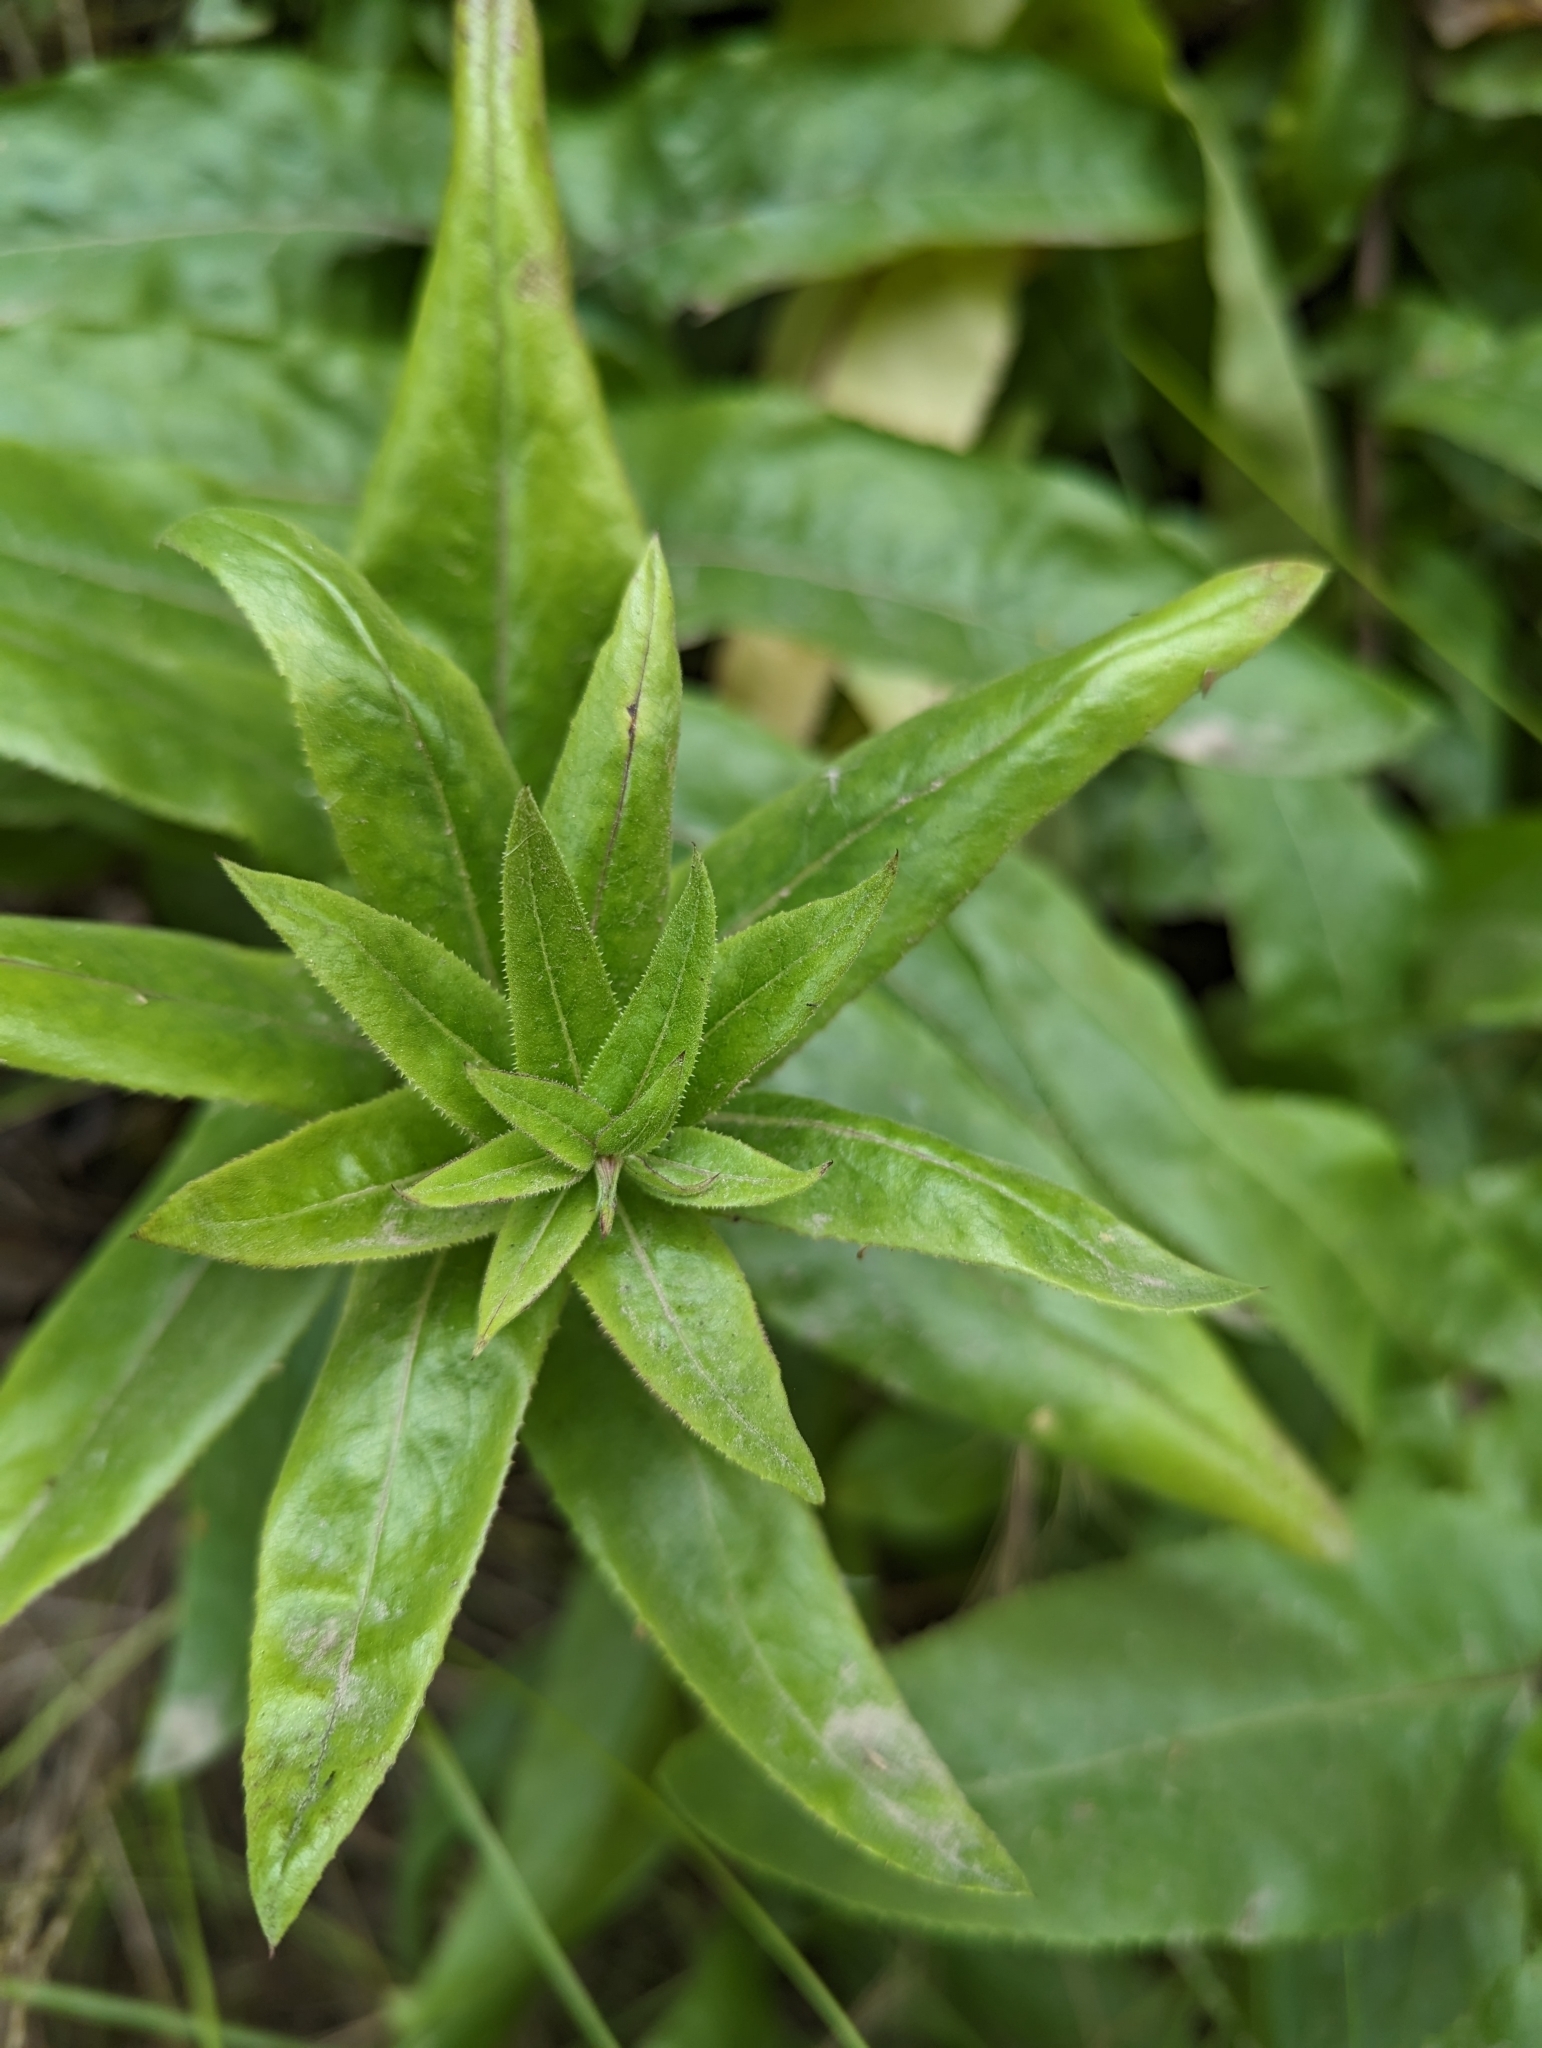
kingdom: Plantae
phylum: Tracheophyta
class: Magnoliopsida
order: Asterales
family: Asteraceae
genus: Acourtia
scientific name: Acourtia microcephala
